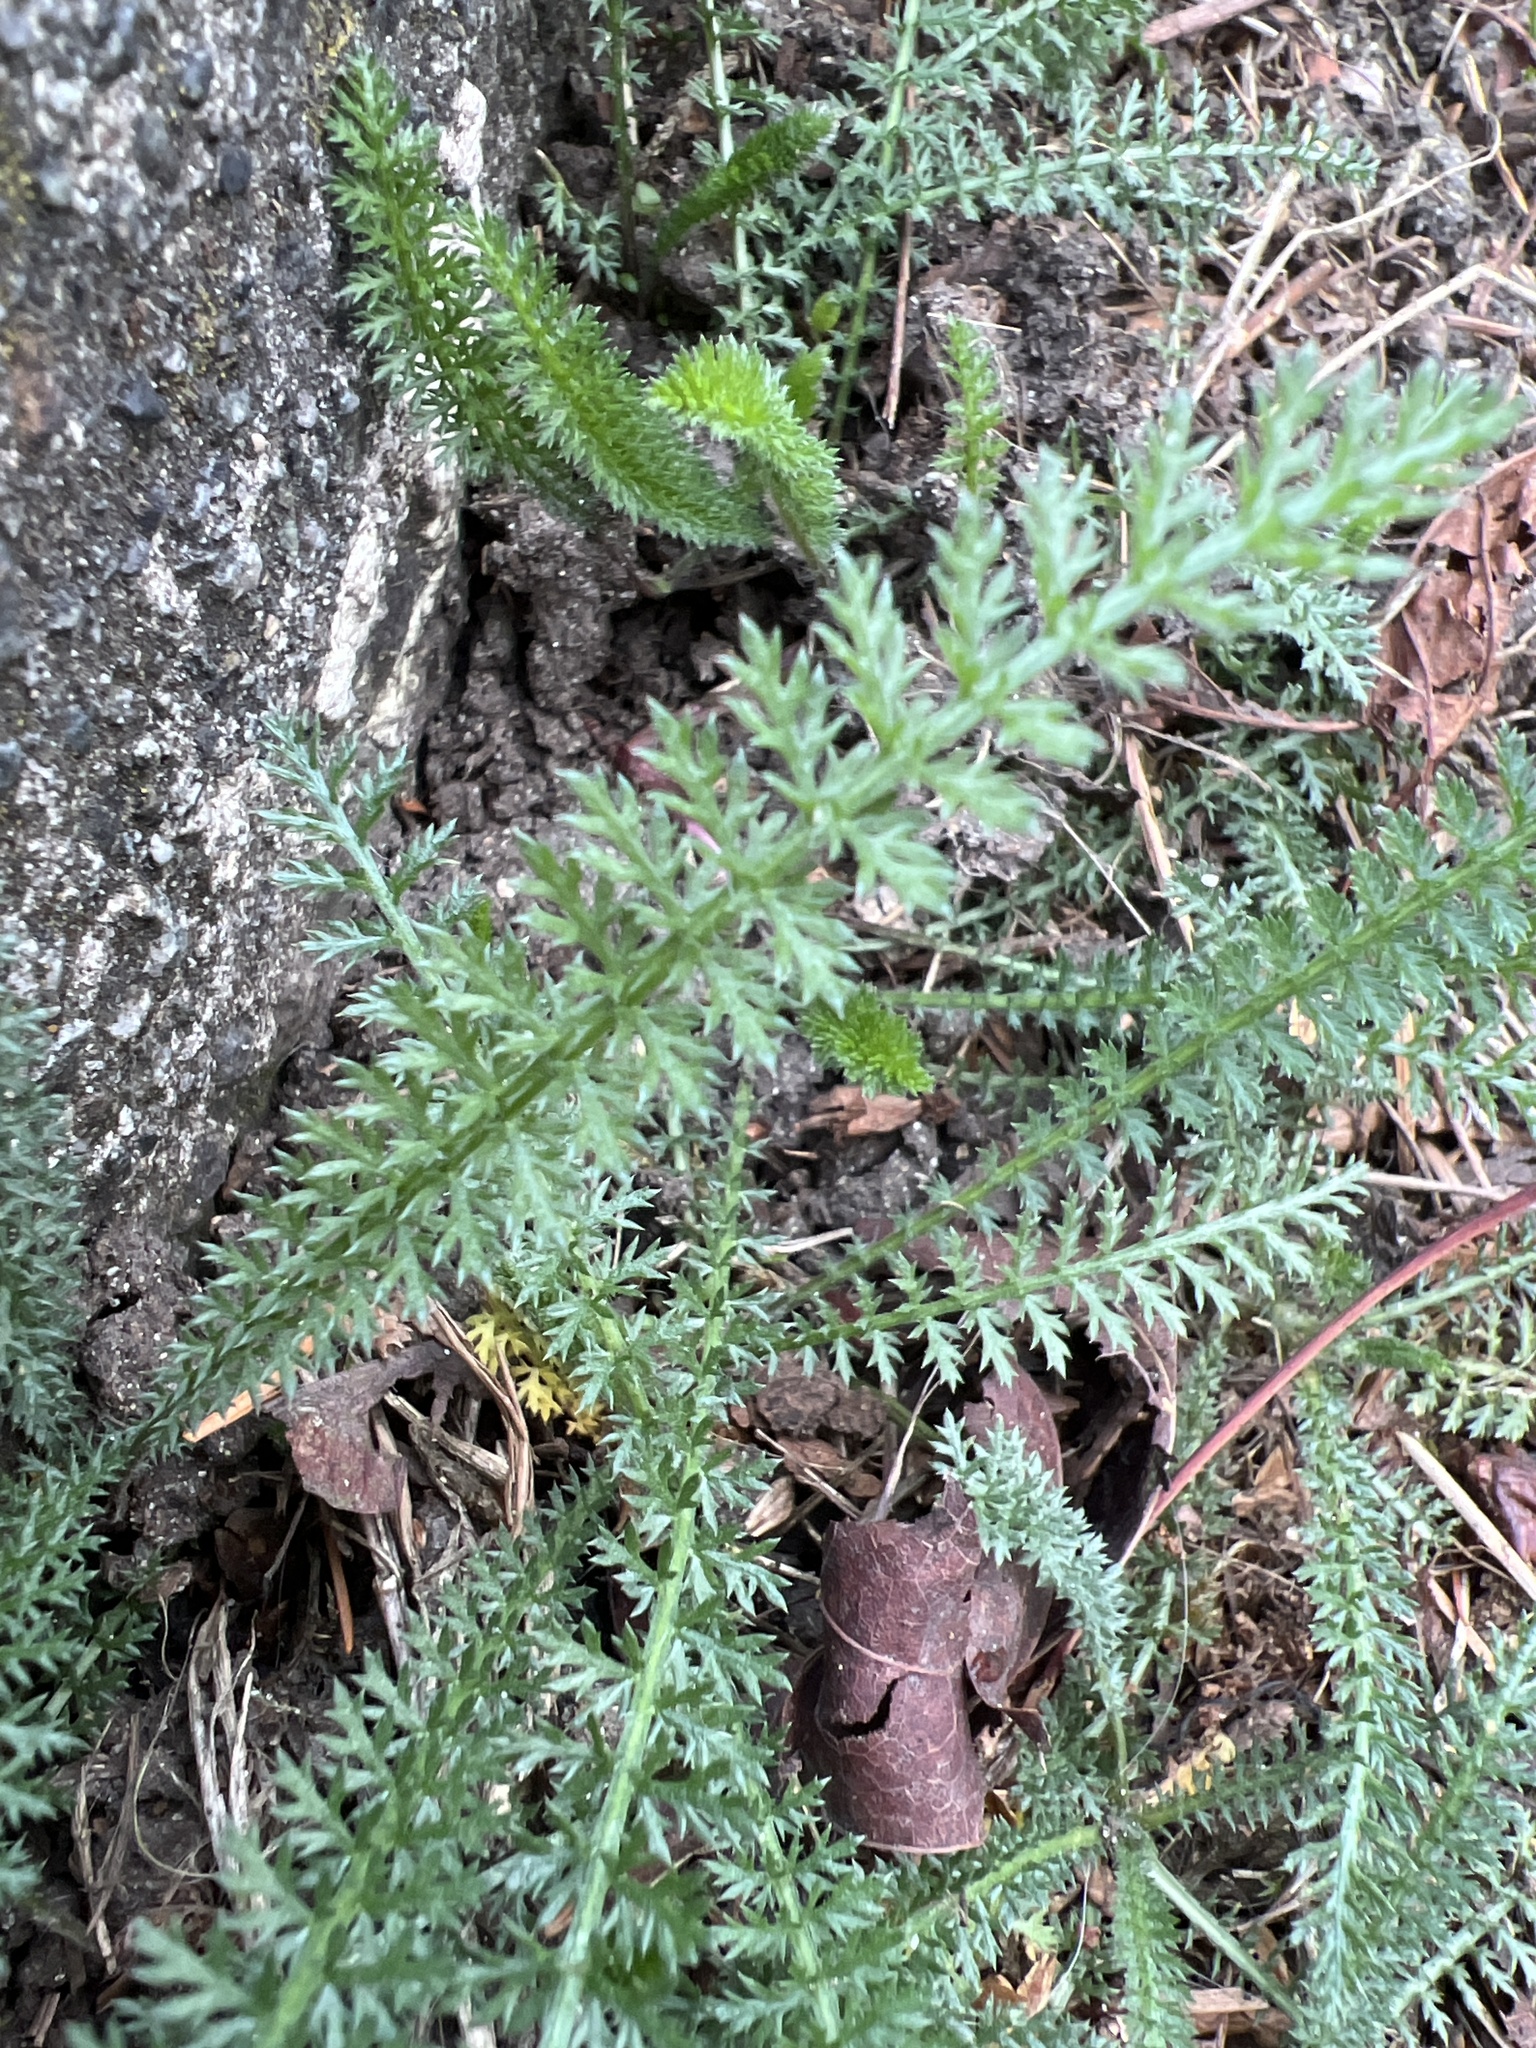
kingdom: Plantae
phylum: Tracheophyta
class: Magnoliopsida
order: Asterales
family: Asteraceae
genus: Achillea
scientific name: Achillea millefolium
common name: Yarrow
